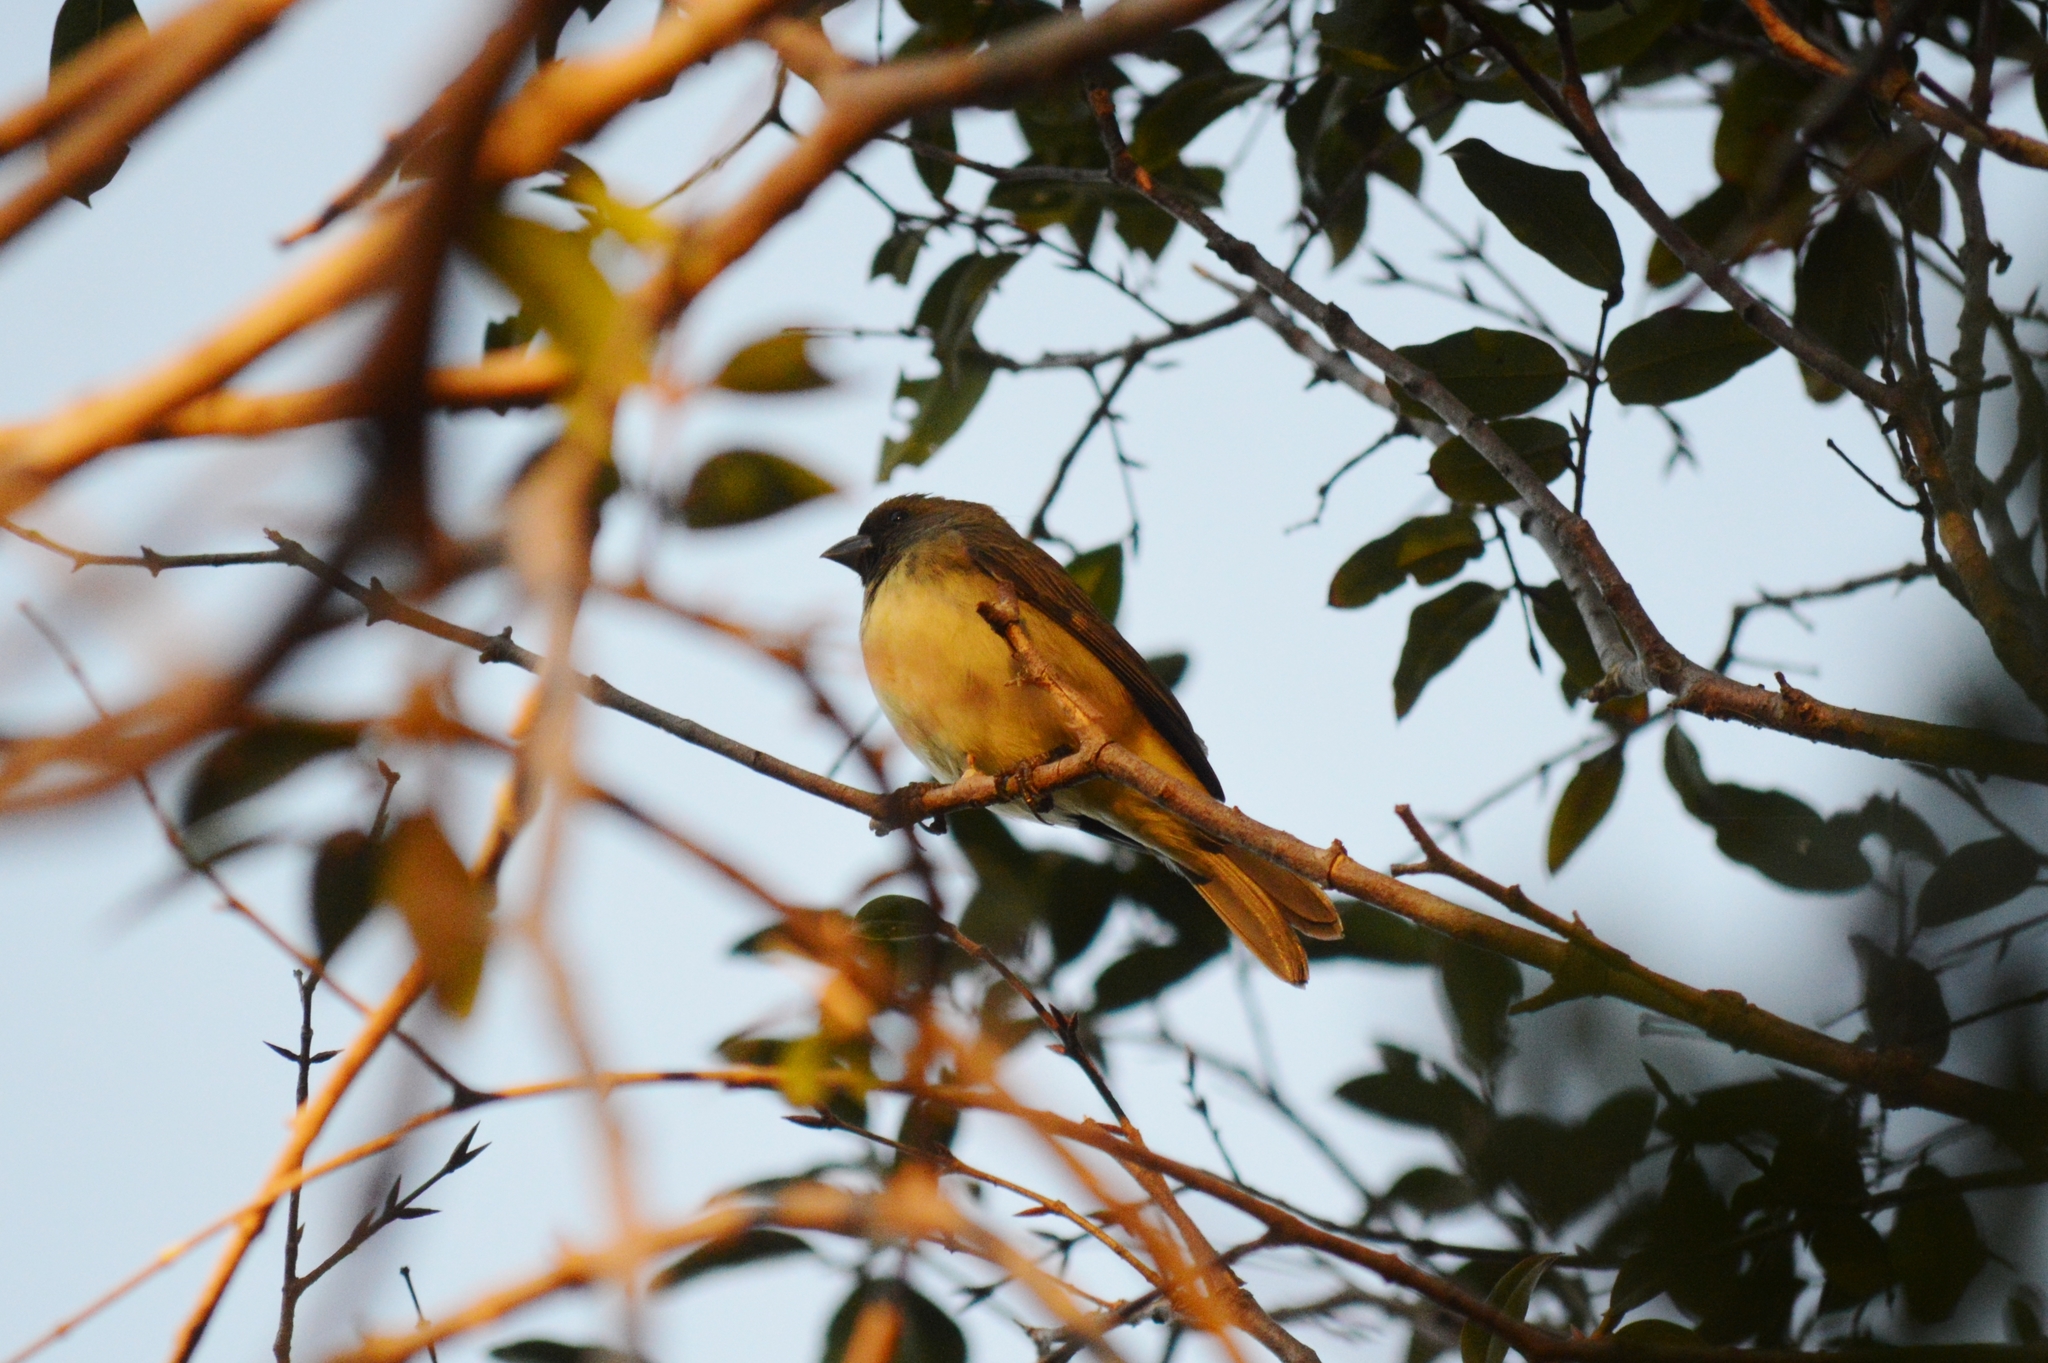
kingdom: Animalia
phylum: Chordata
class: Aves
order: Passeriformes
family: Thraupidae
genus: Sporophila
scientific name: Sporophila nigricollis
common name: Yellow-bellied seedeater
